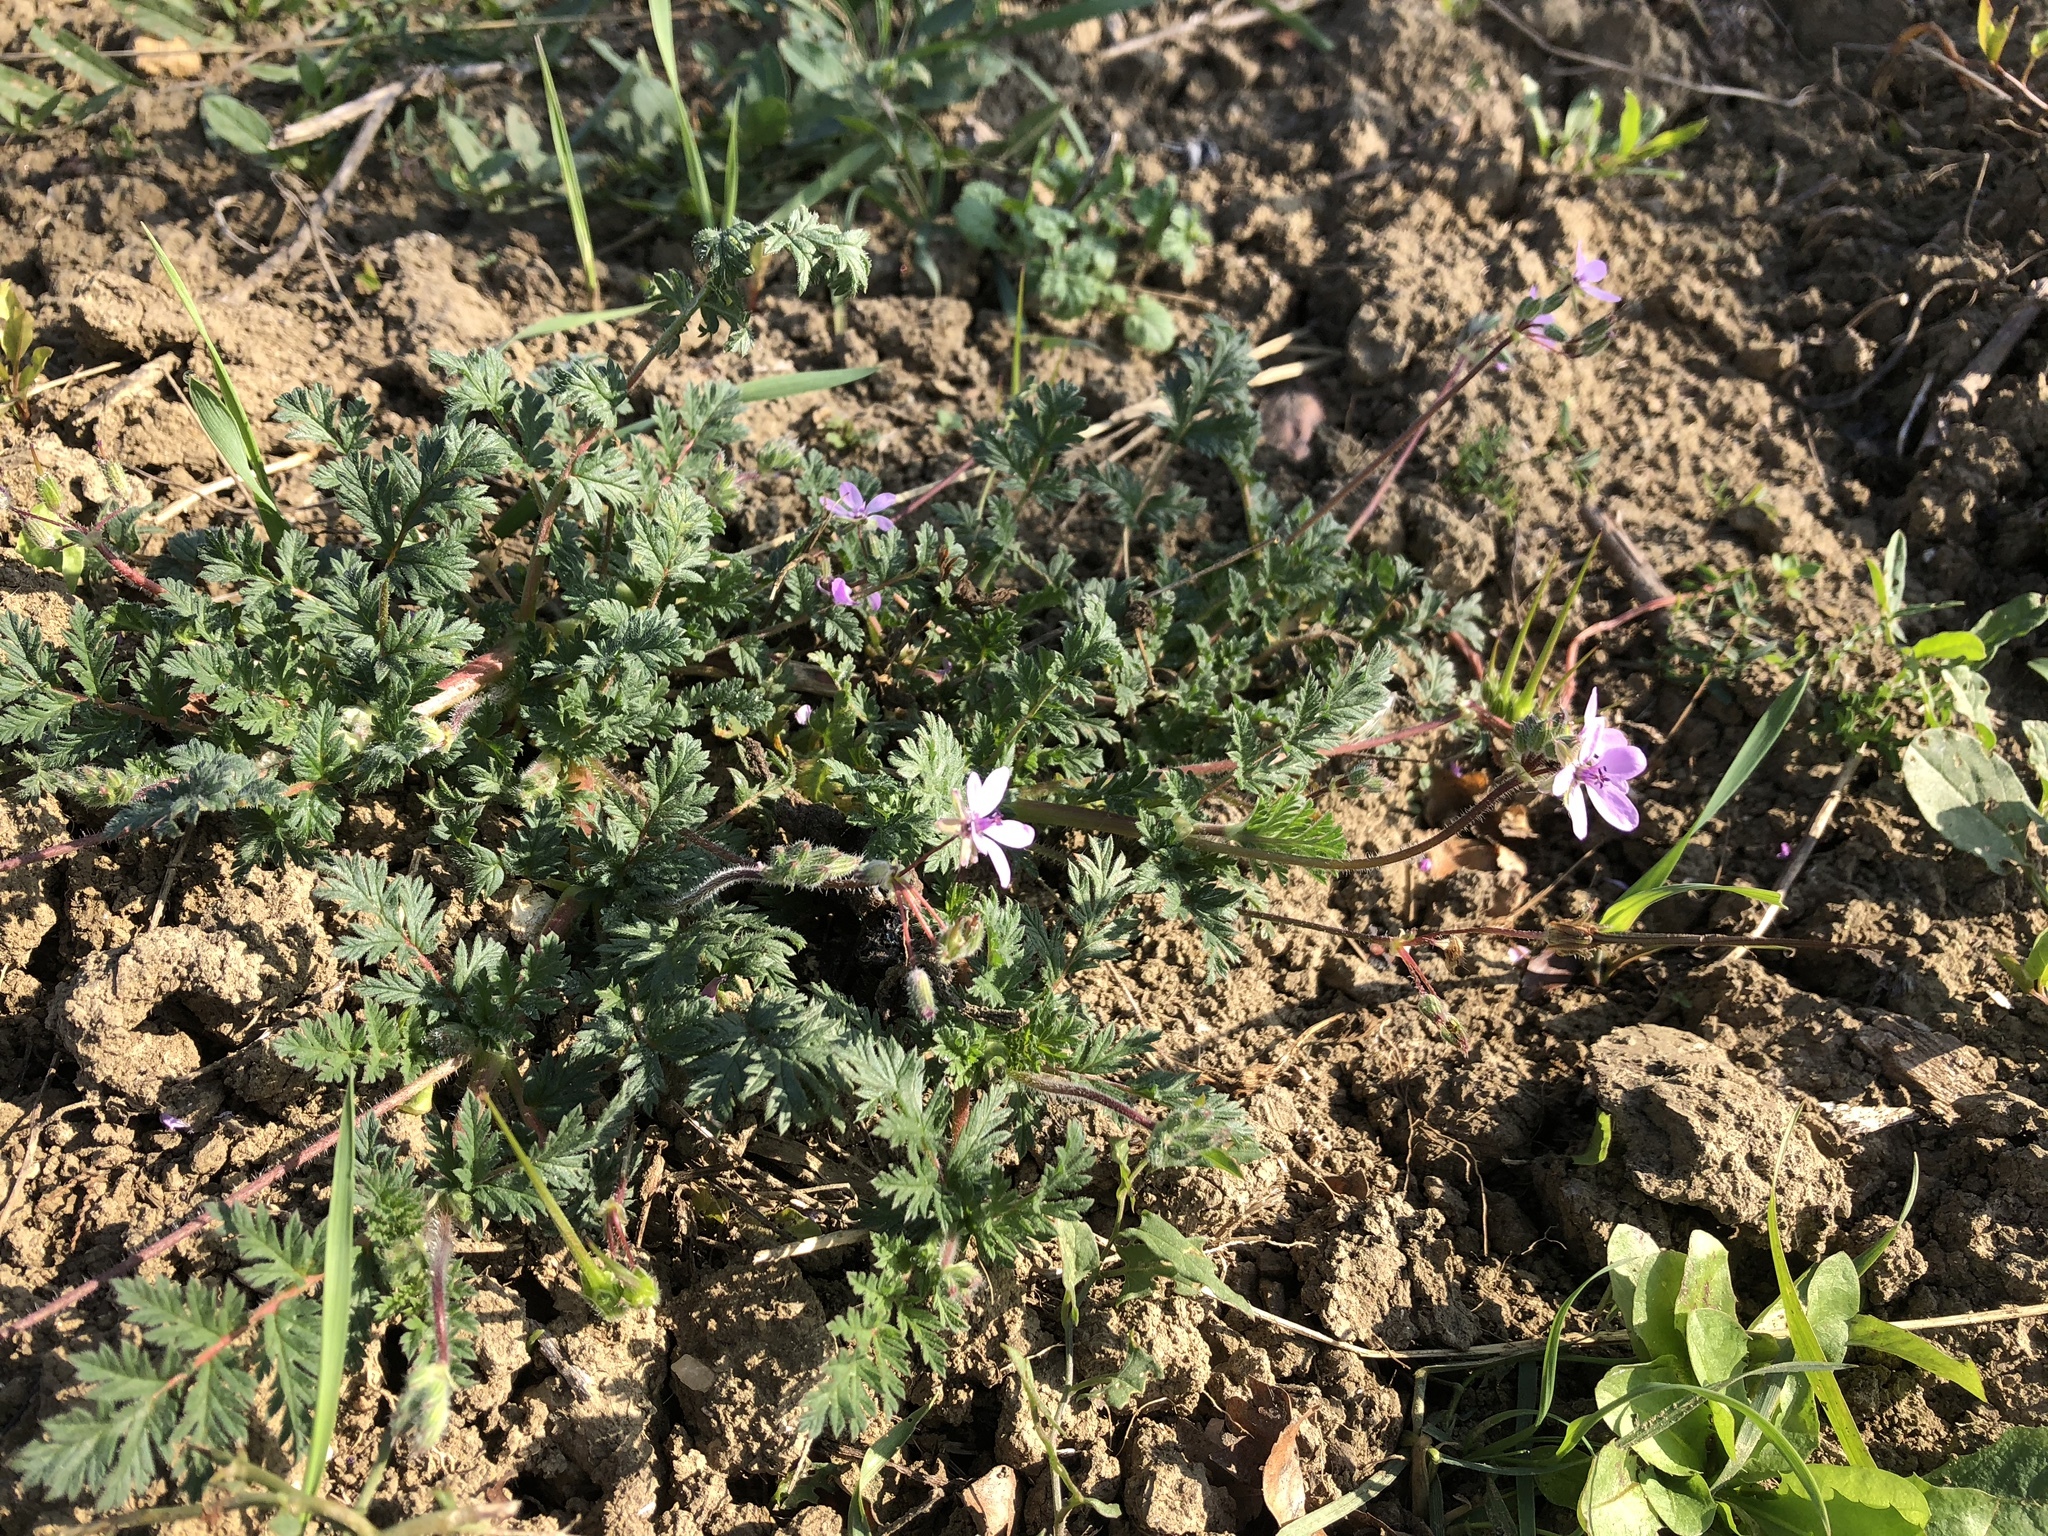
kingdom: Plantae
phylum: Tracheophyta
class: Magnoliopsida
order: Geraniales
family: Geraniaceae
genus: Erodium
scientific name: Erodium cicutarium
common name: Common stork's-bill
